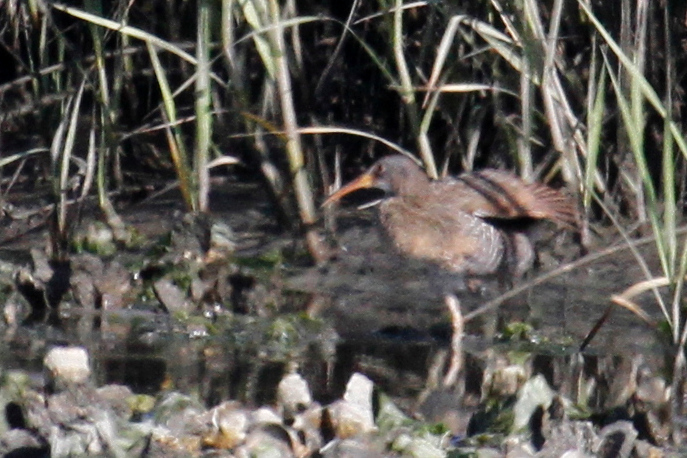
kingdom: Animalia
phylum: Chordata
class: Aves
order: Gruiformes
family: Rallidae
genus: Rallus
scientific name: Rallus crepitans
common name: Clapper rail
